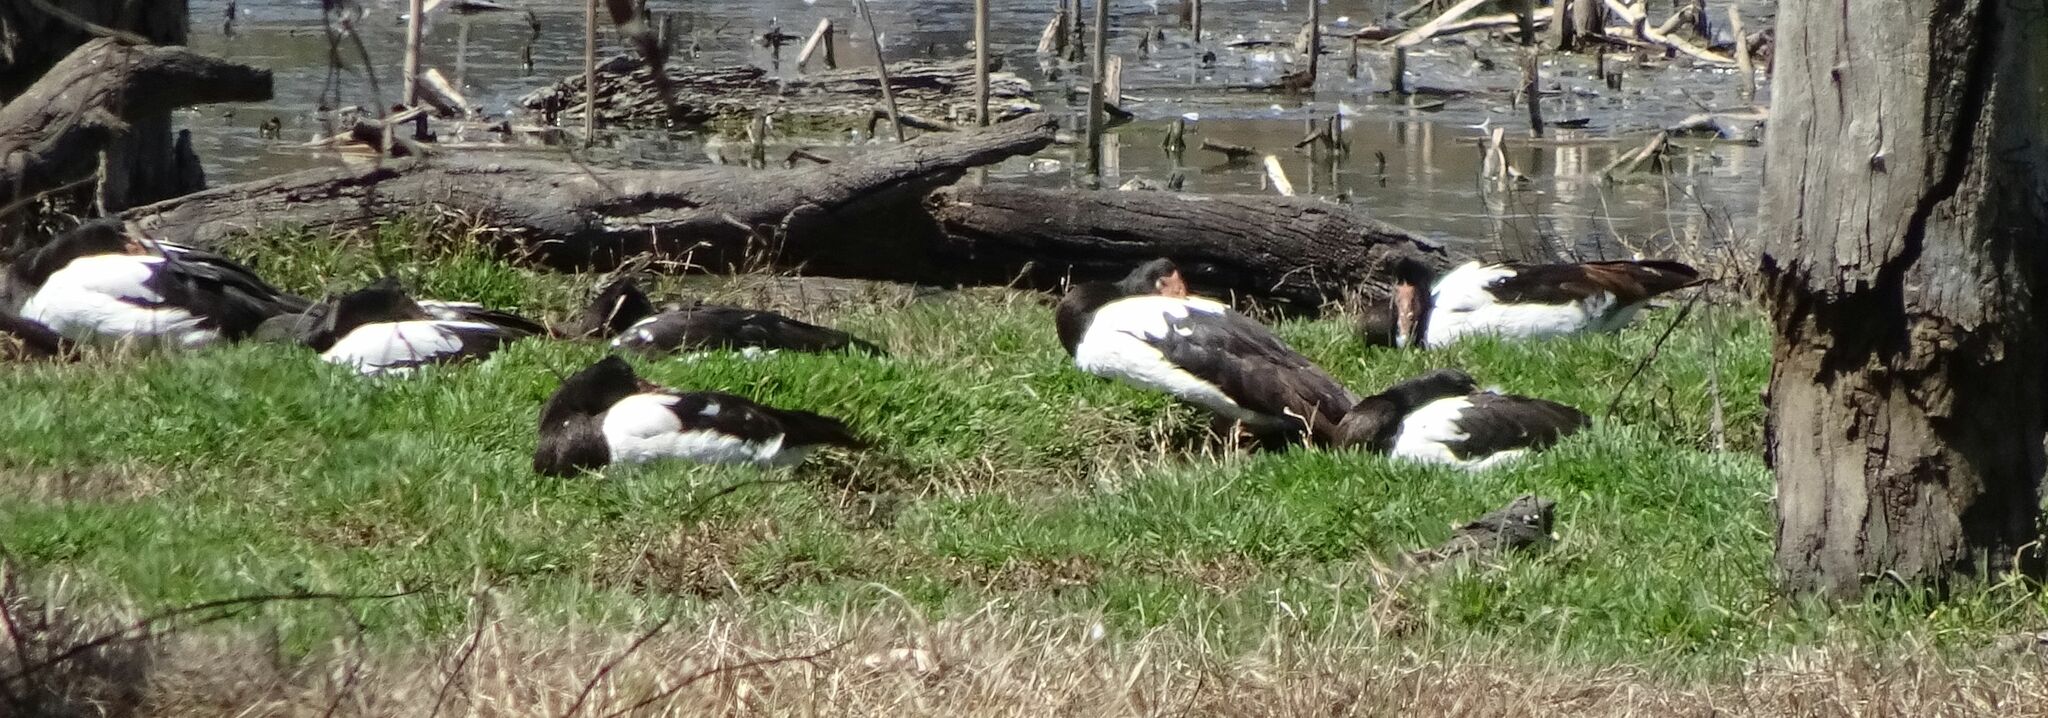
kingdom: Animalia
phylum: Chordata
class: Aves
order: Anseriformes
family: Anseranatidae
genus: Anseranas
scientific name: Anseranas semipalmata
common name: Magpie goose
